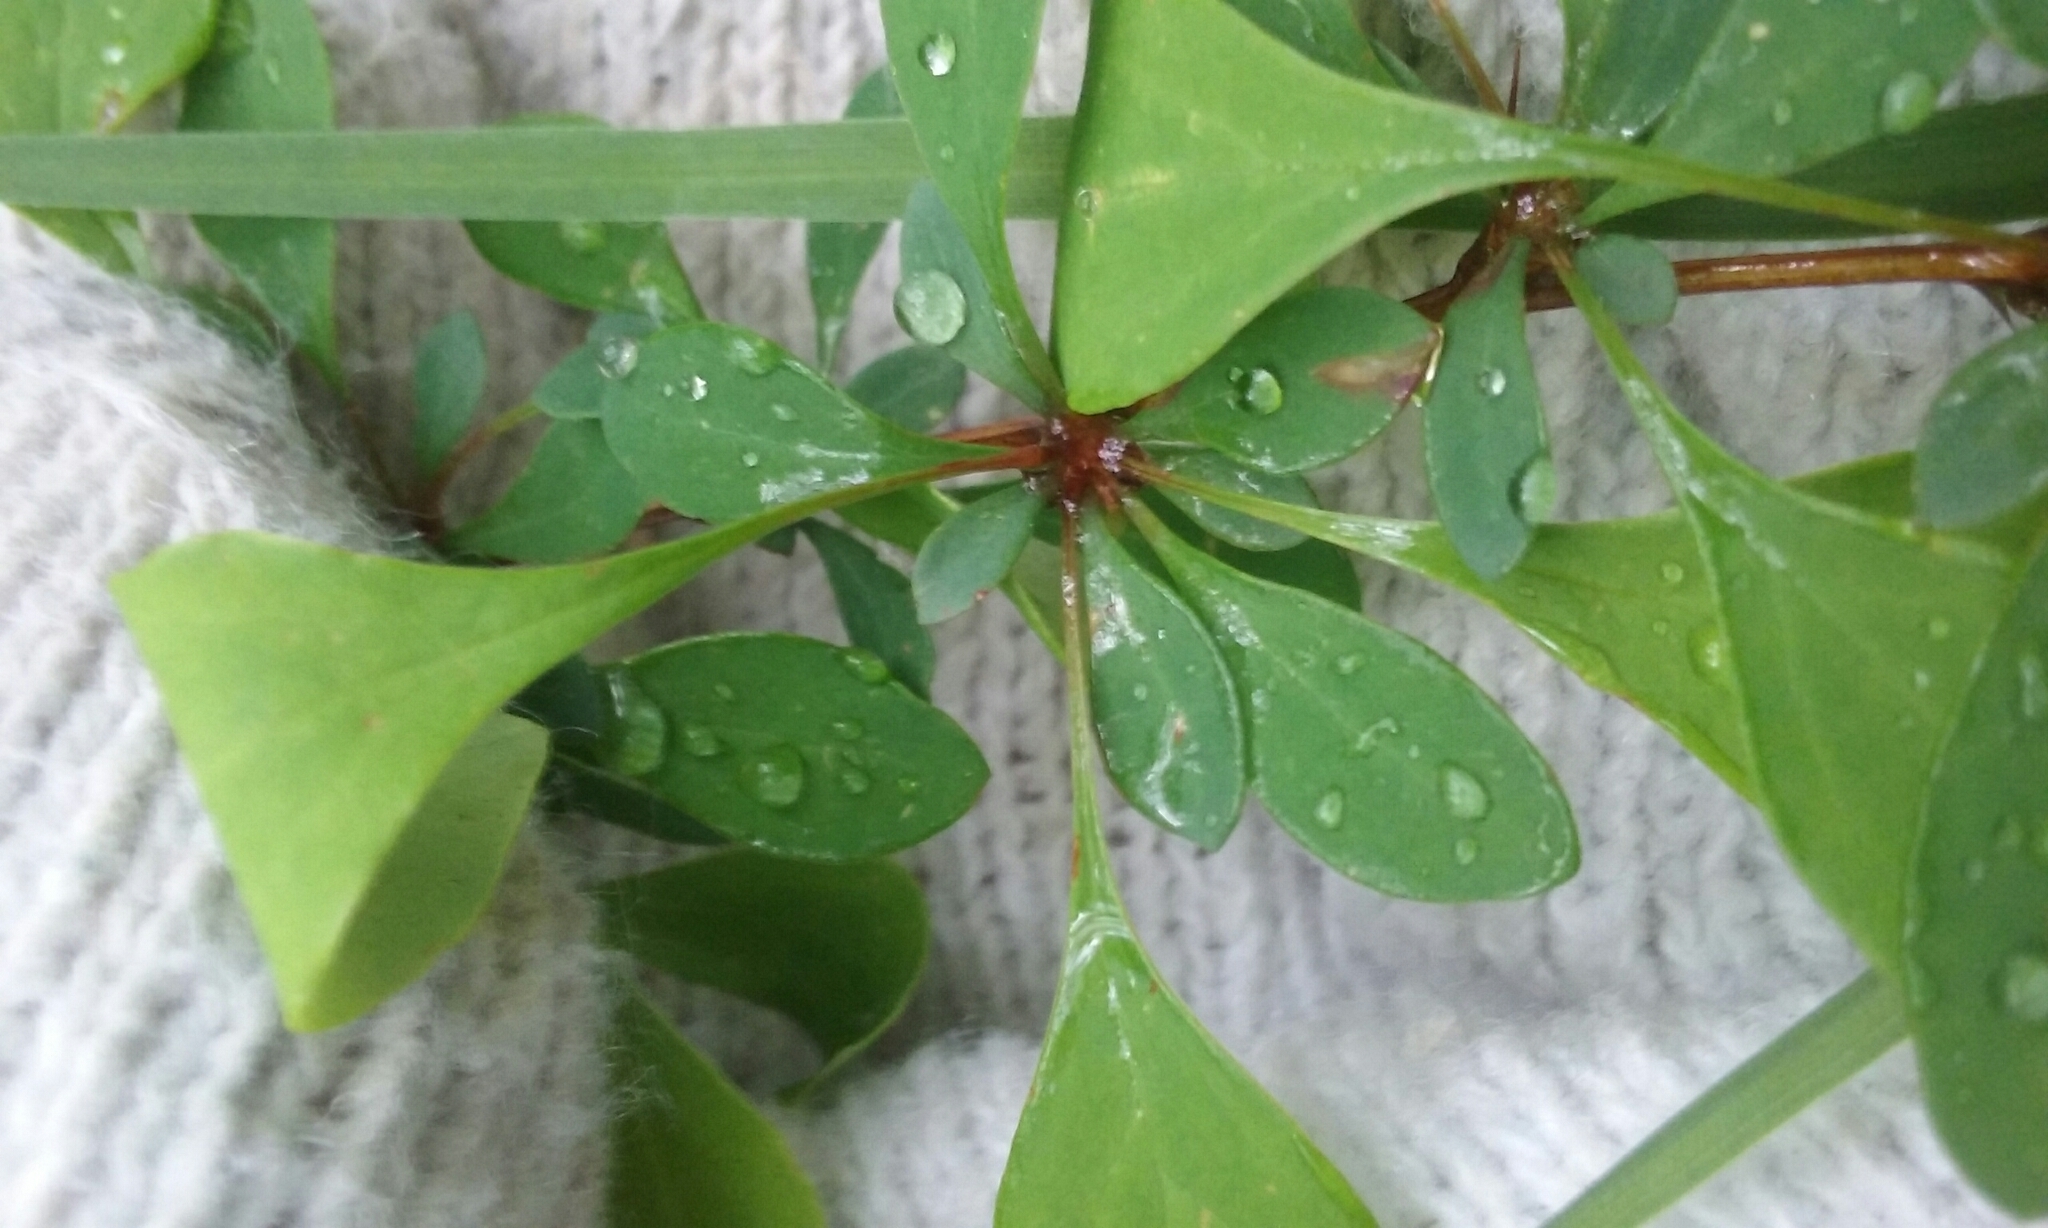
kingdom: Plantae
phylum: Tracheophyta
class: Magnoliopsida
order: Ranunculales
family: Berberidaceae
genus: Berberis
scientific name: Berberis thunbergii
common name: Japanese barberry
